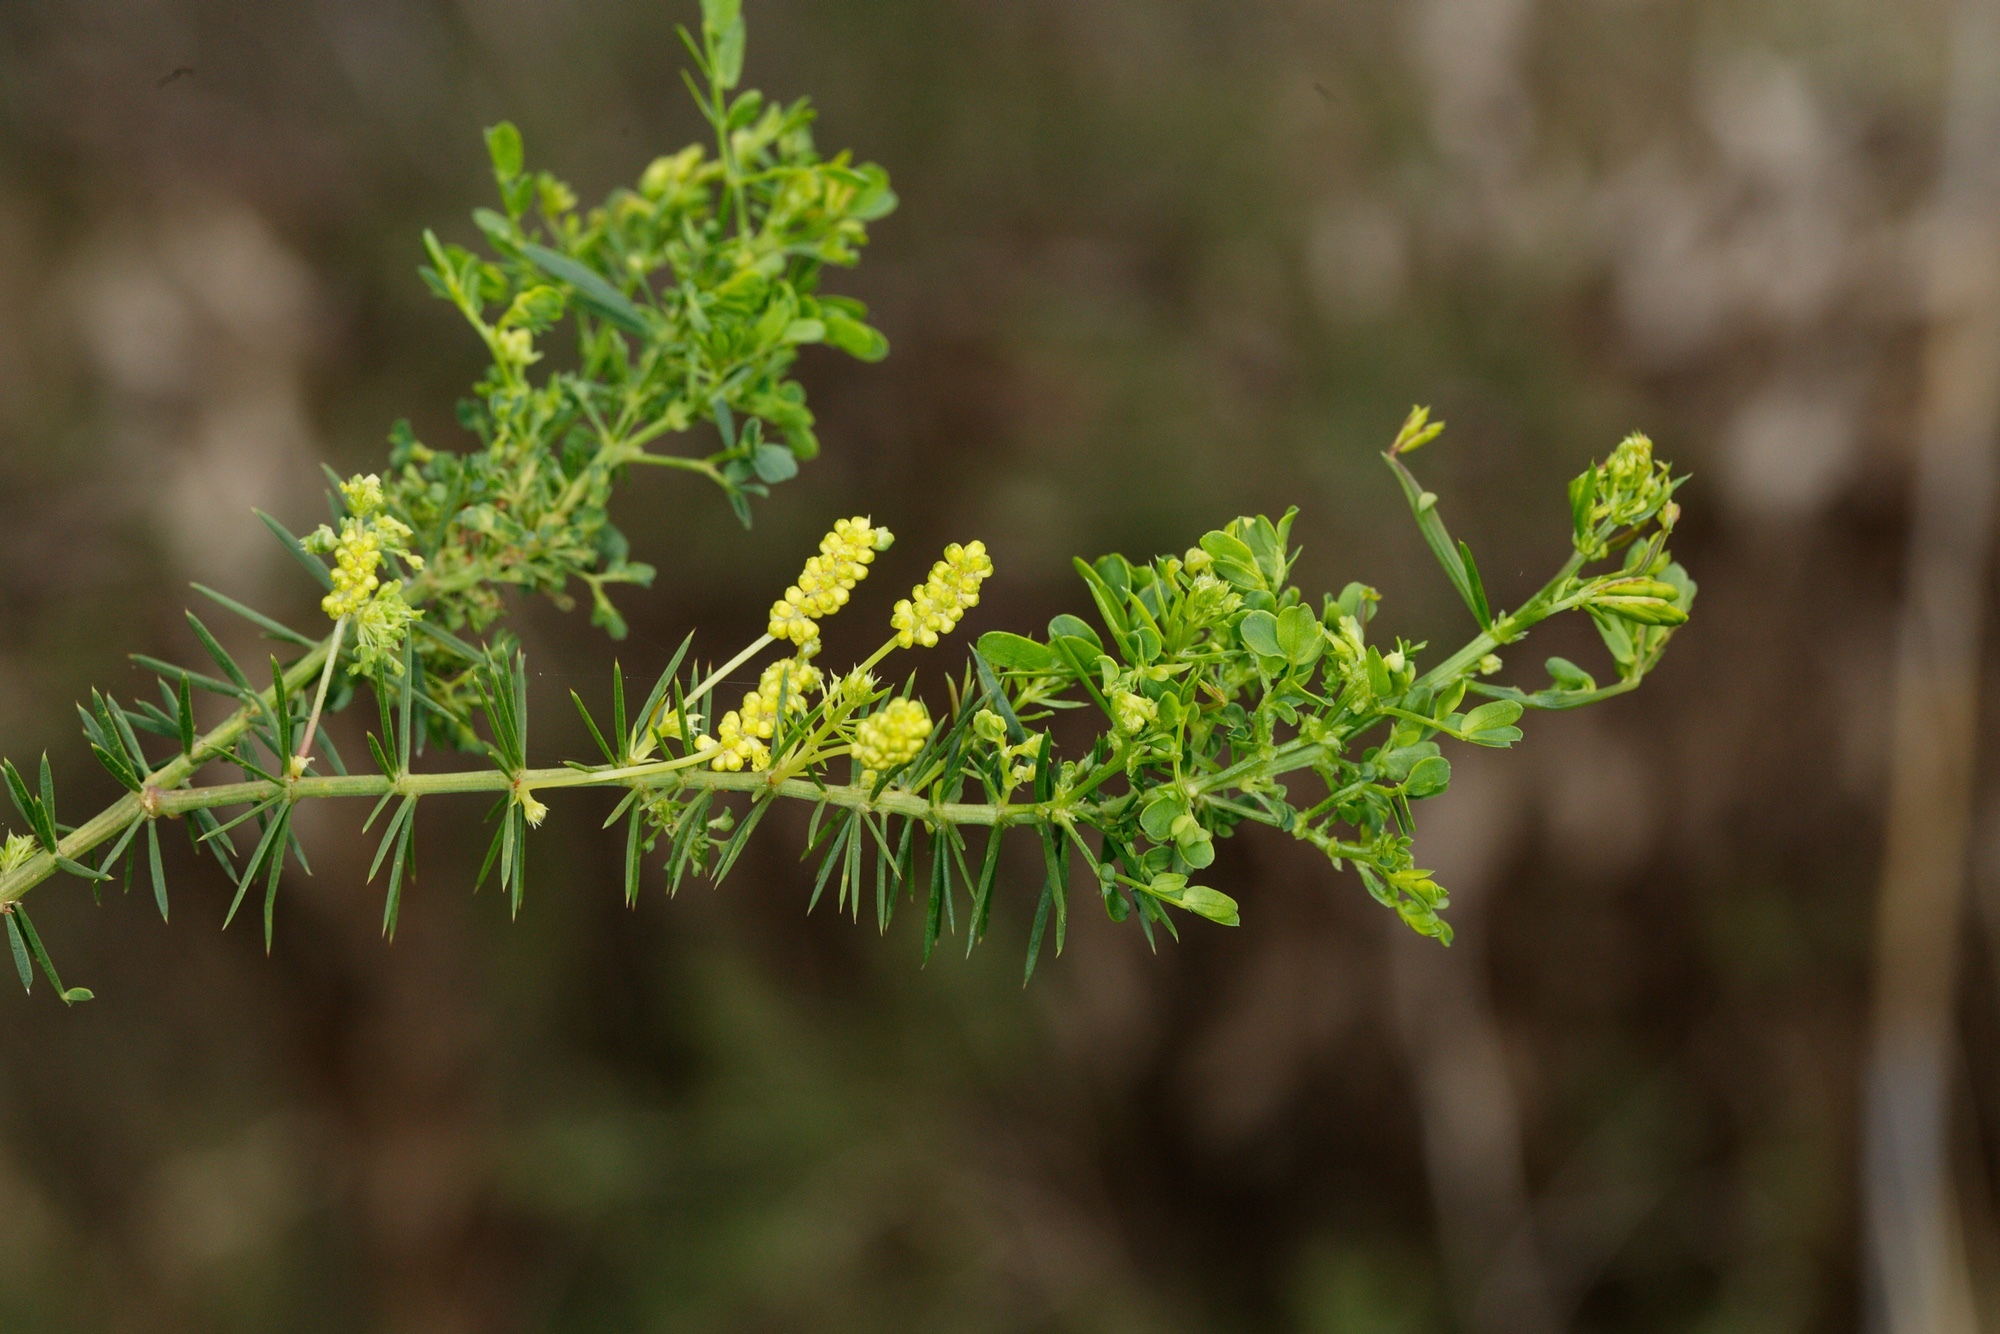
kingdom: Plantae
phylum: Tracheophyta
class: Magnoliopsida
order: Fabales
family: Fabaceae
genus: Acacia
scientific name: Acacia verticillata
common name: Prickly moses
